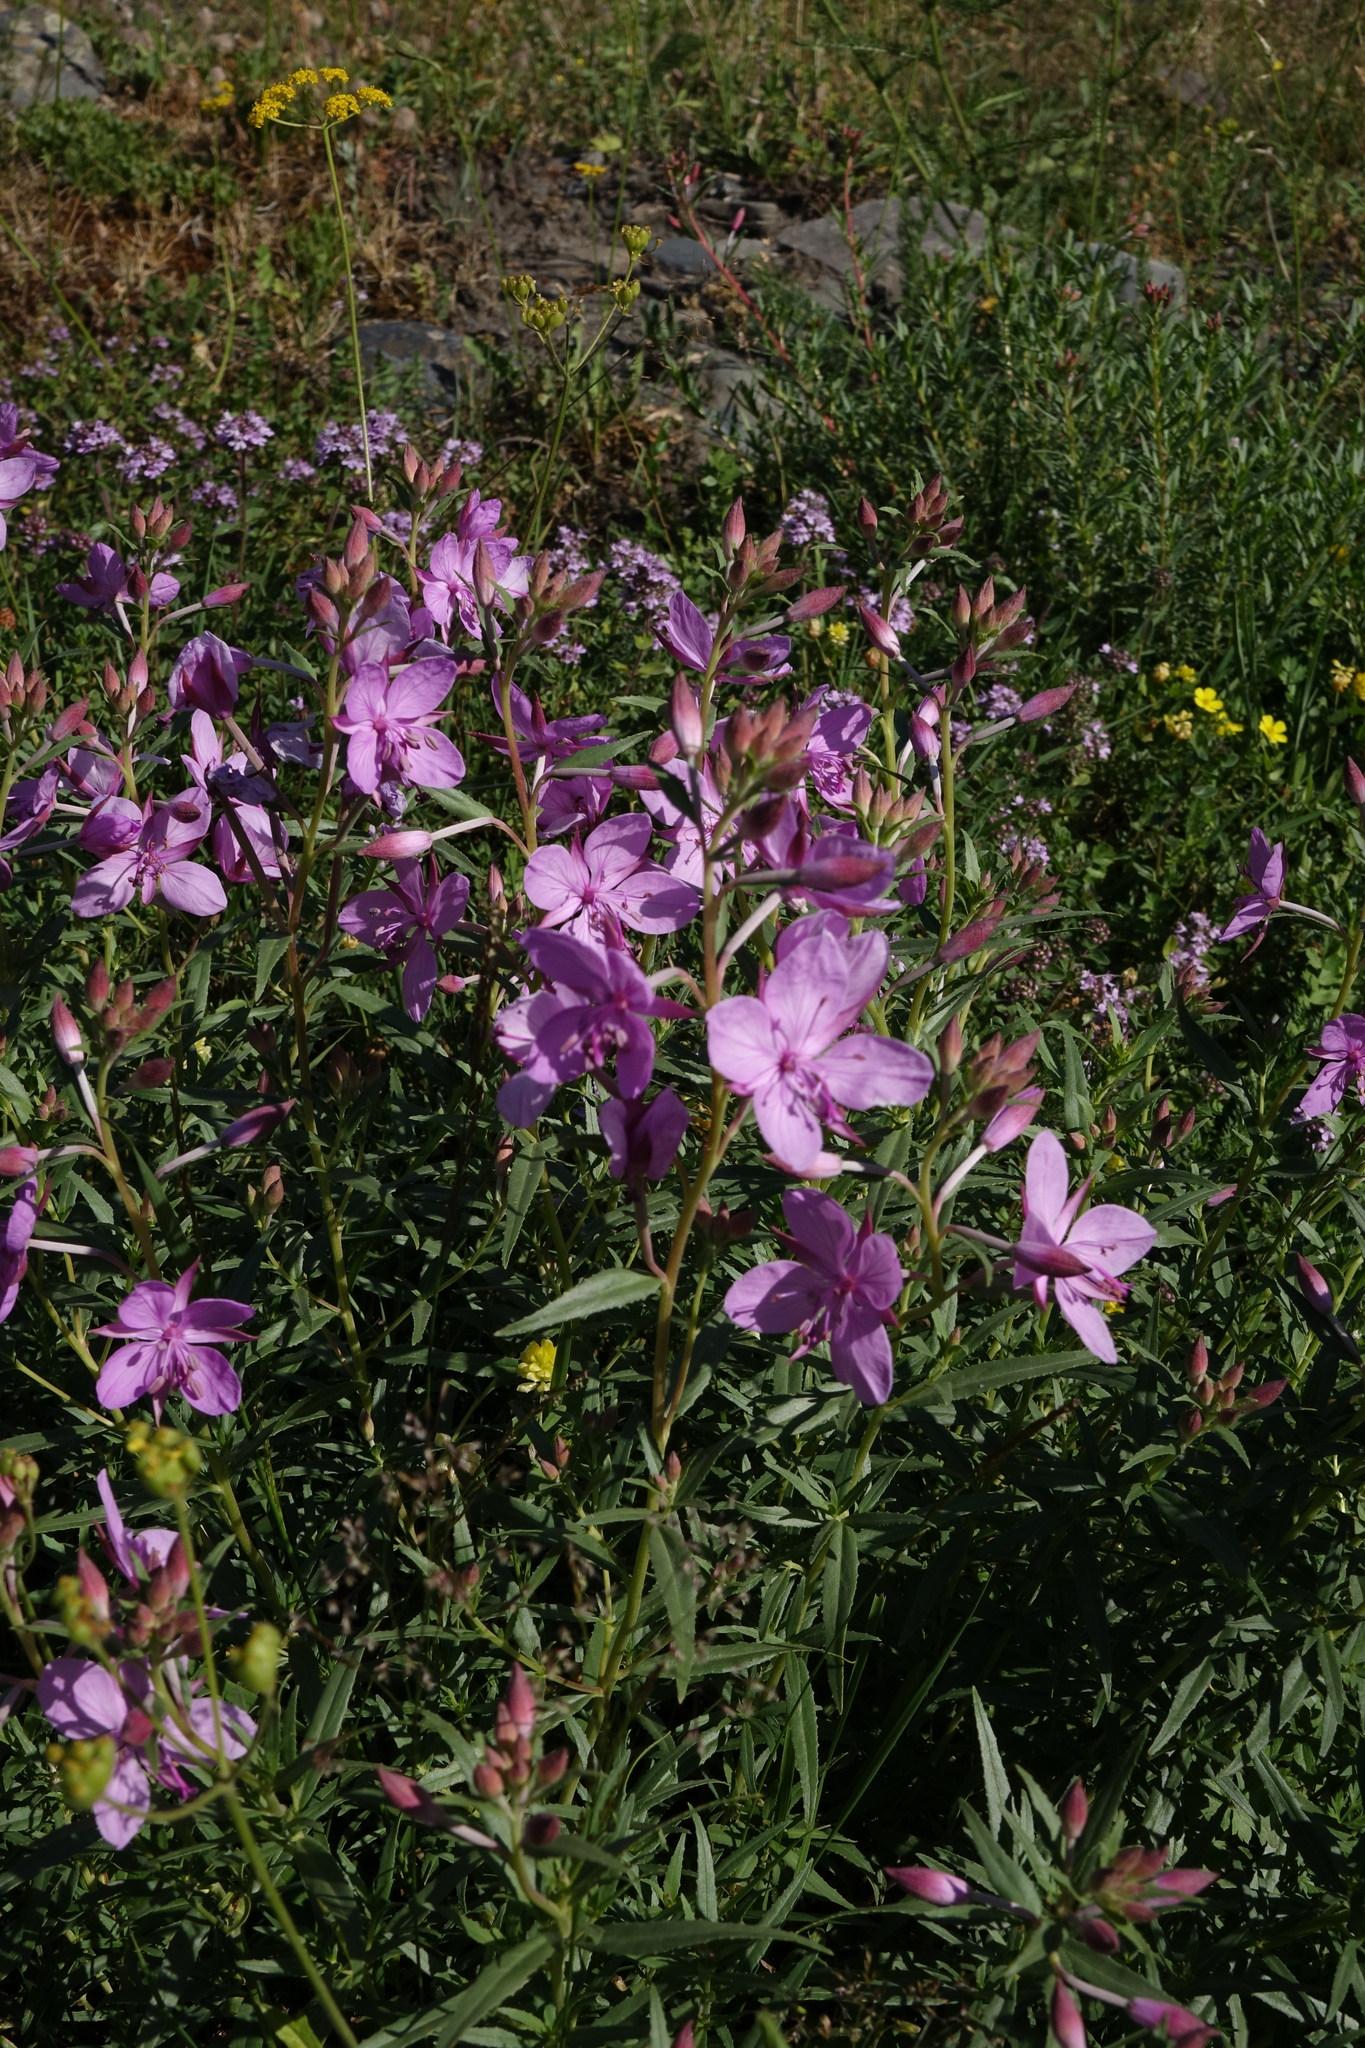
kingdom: Plantae
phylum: Tracheophyta
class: Magnoliopsida
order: Myrtales
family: Onagraceae
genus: Chamaenerion
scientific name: Chamaenerion colchicum
